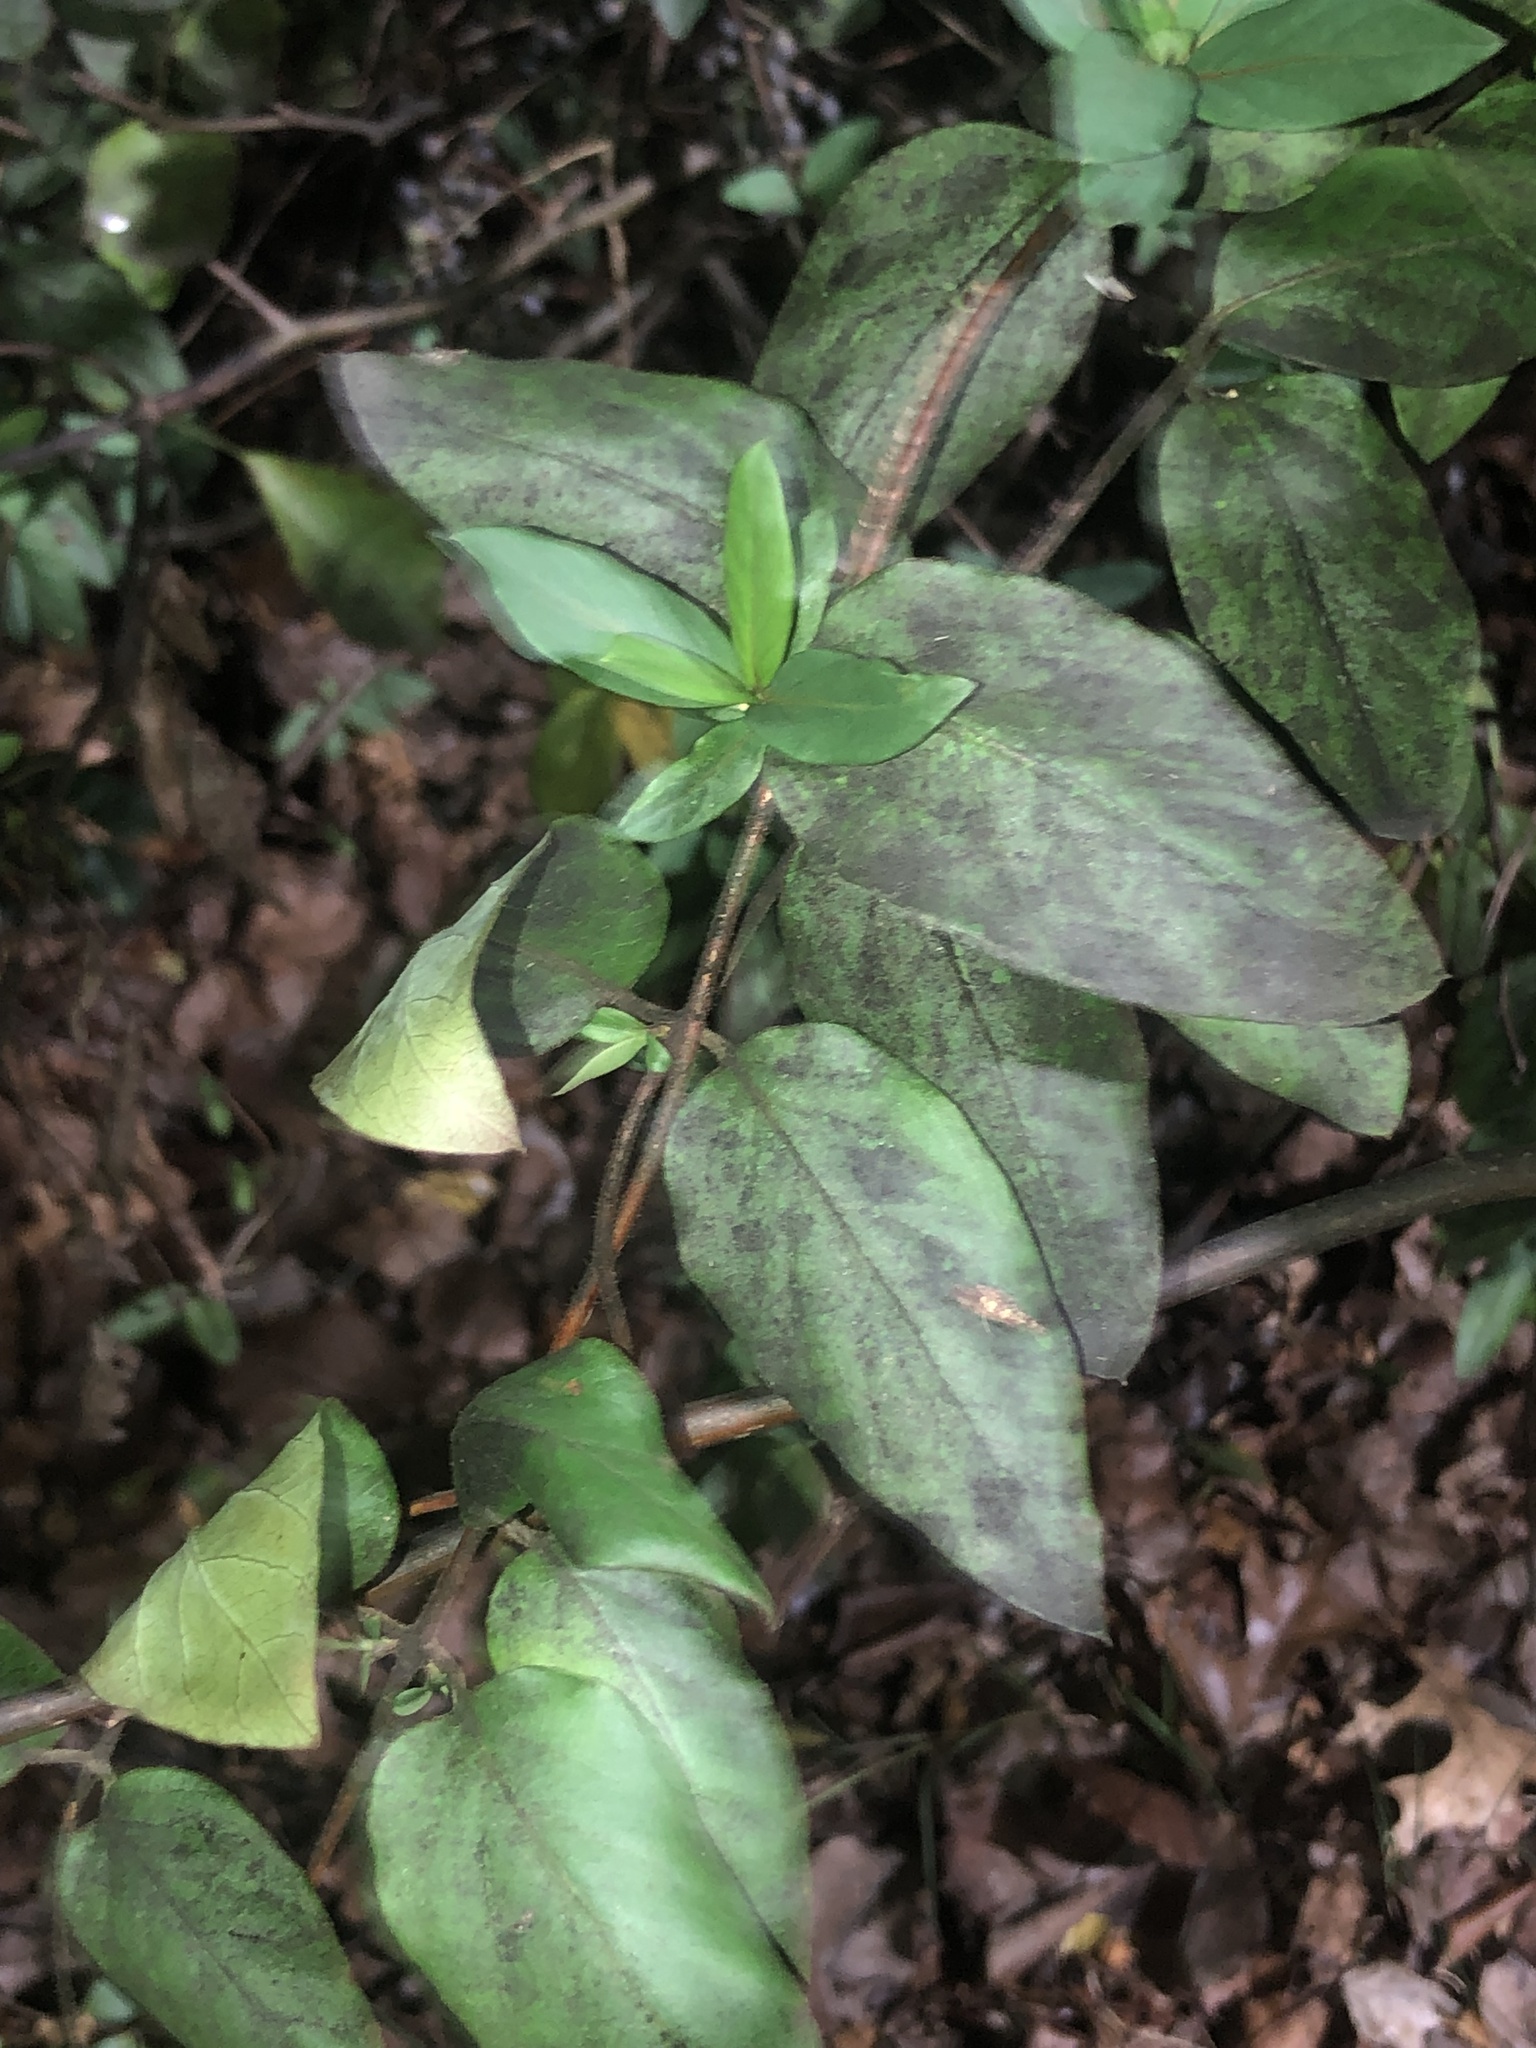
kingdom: Plantae
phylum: Tracheophyta
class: Magnoliopsida
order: Dipsacales
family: Caprifoliaceae
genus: Lonicera
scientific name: Lonicera japonica
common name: Japanese honeysuckle
